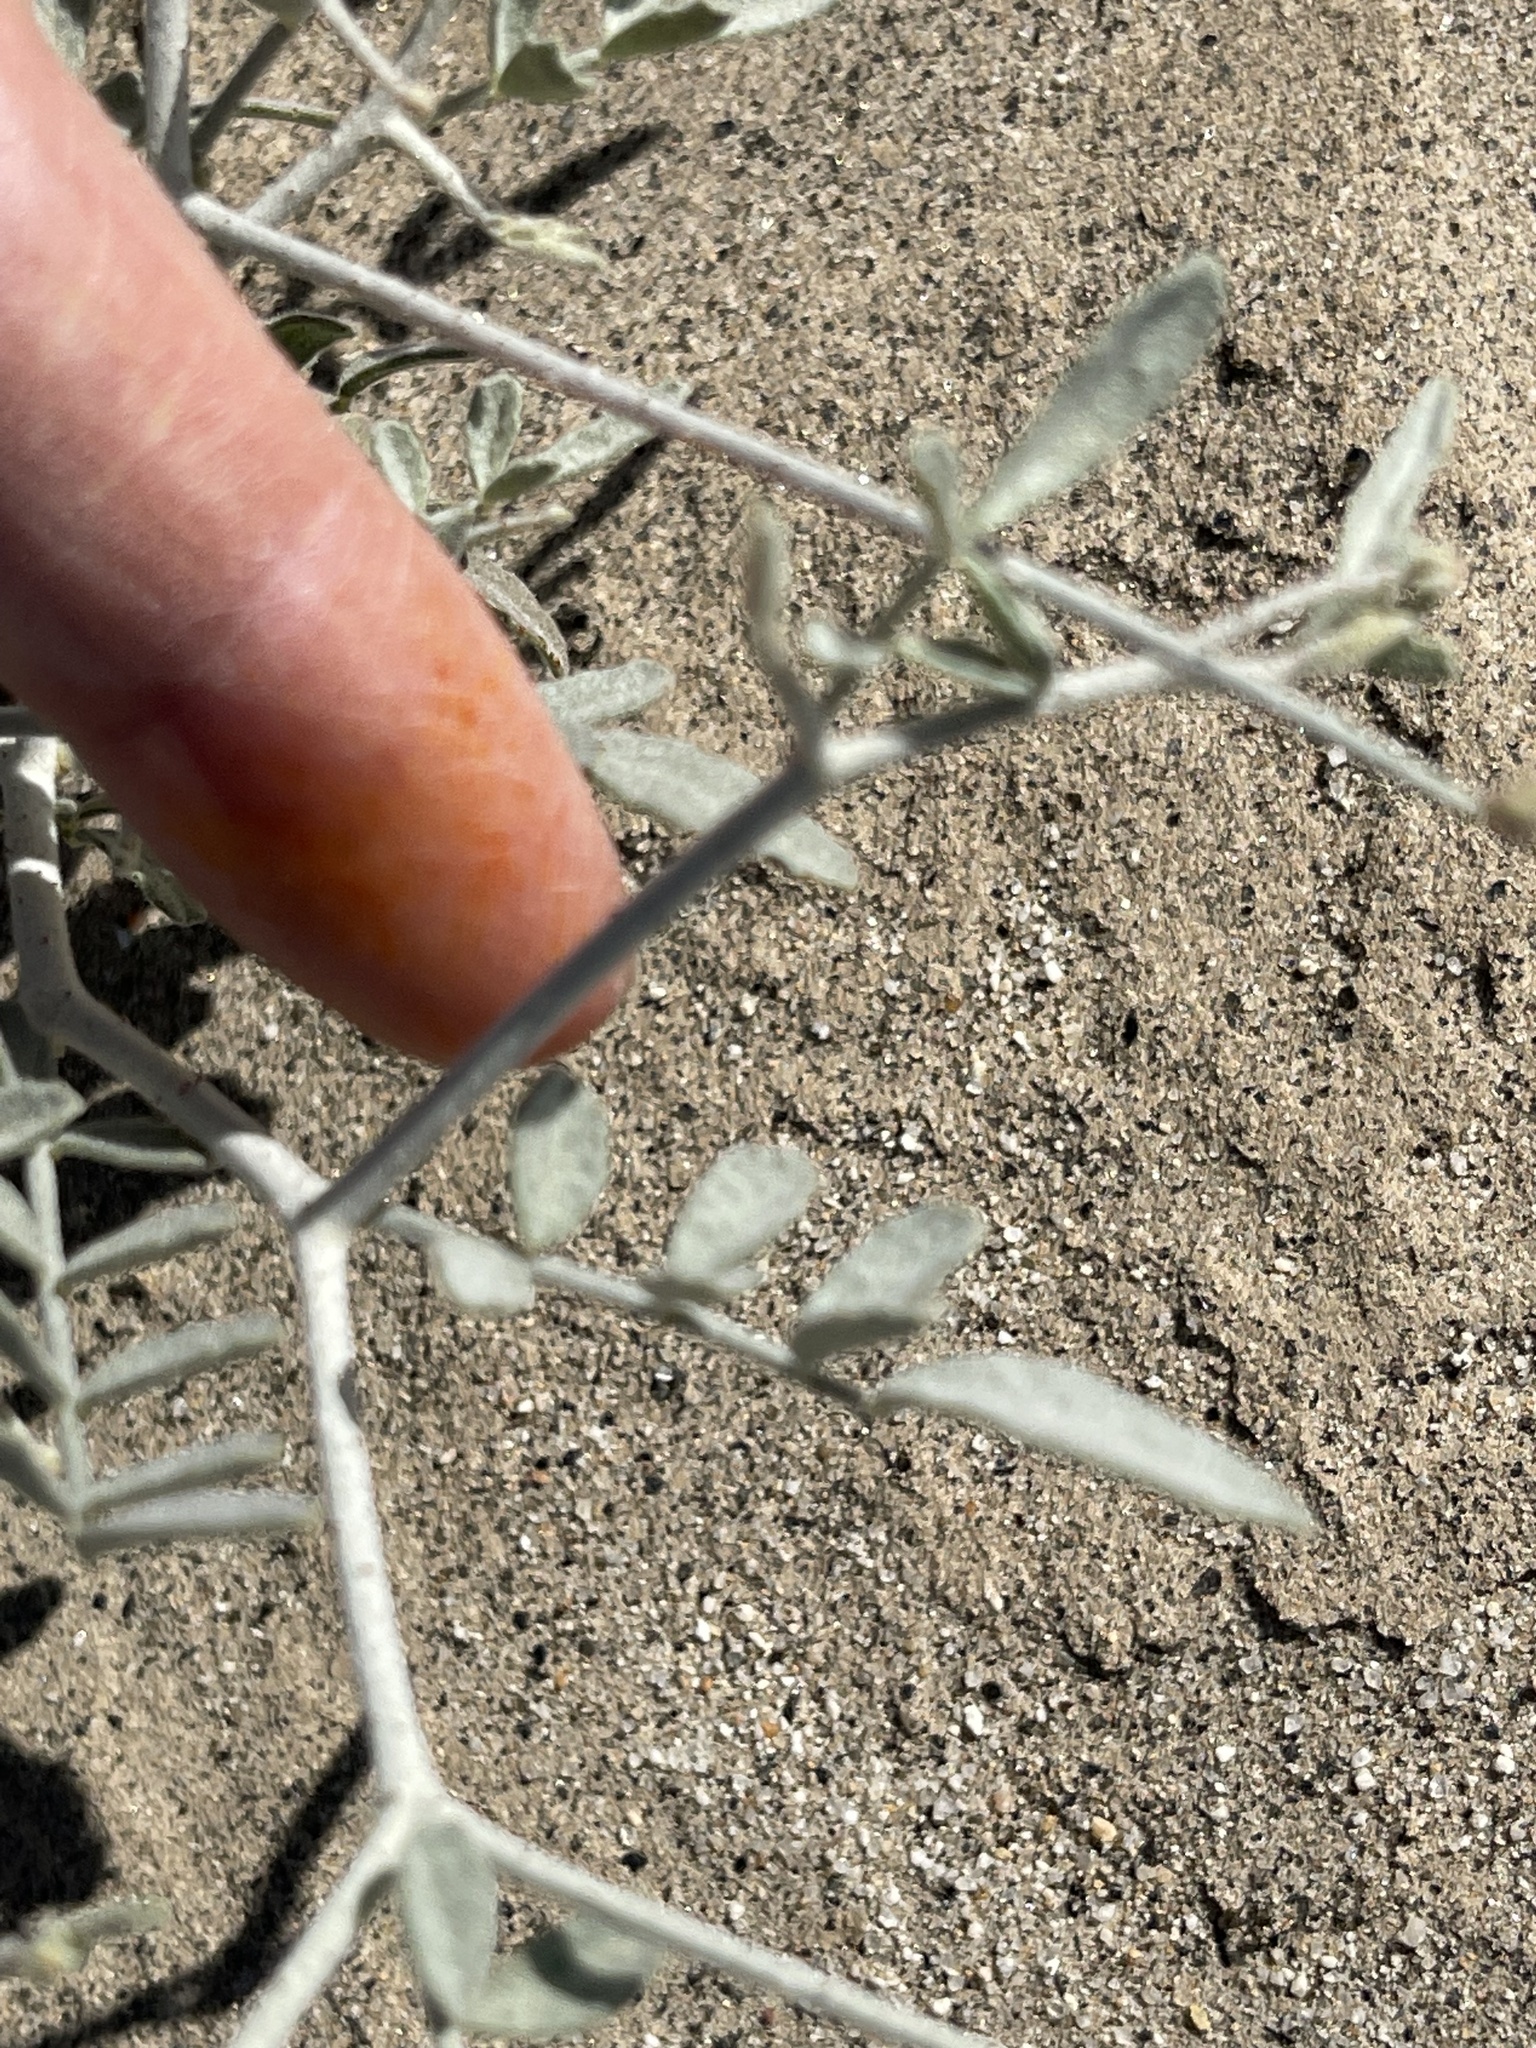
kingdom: Plantae
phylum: Tracheophyta
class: Magnoliopsida
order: Fabales
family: Fabaceae
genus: Psorothamnus
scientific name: Psorothamnus emoryi
